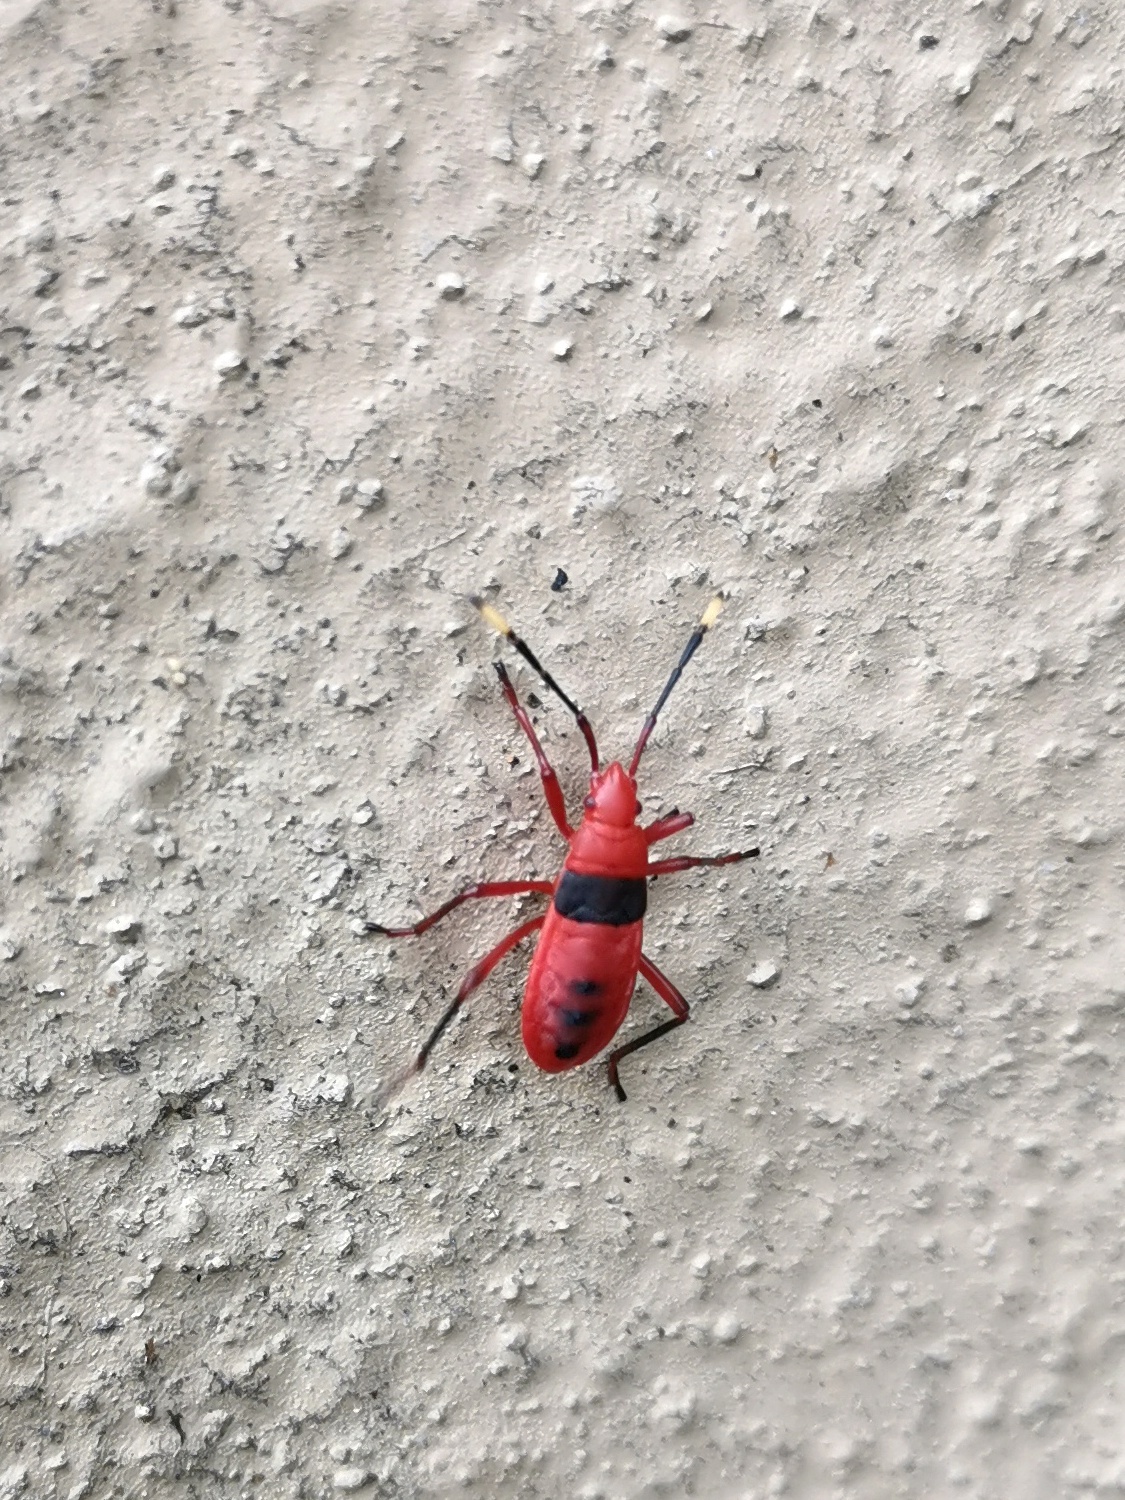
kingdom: Animalia
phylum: Arthropoda
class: Insecta
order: Hemiptera
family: Pyrrhocoridae
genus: Probergrothius
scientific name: Probergrothius
